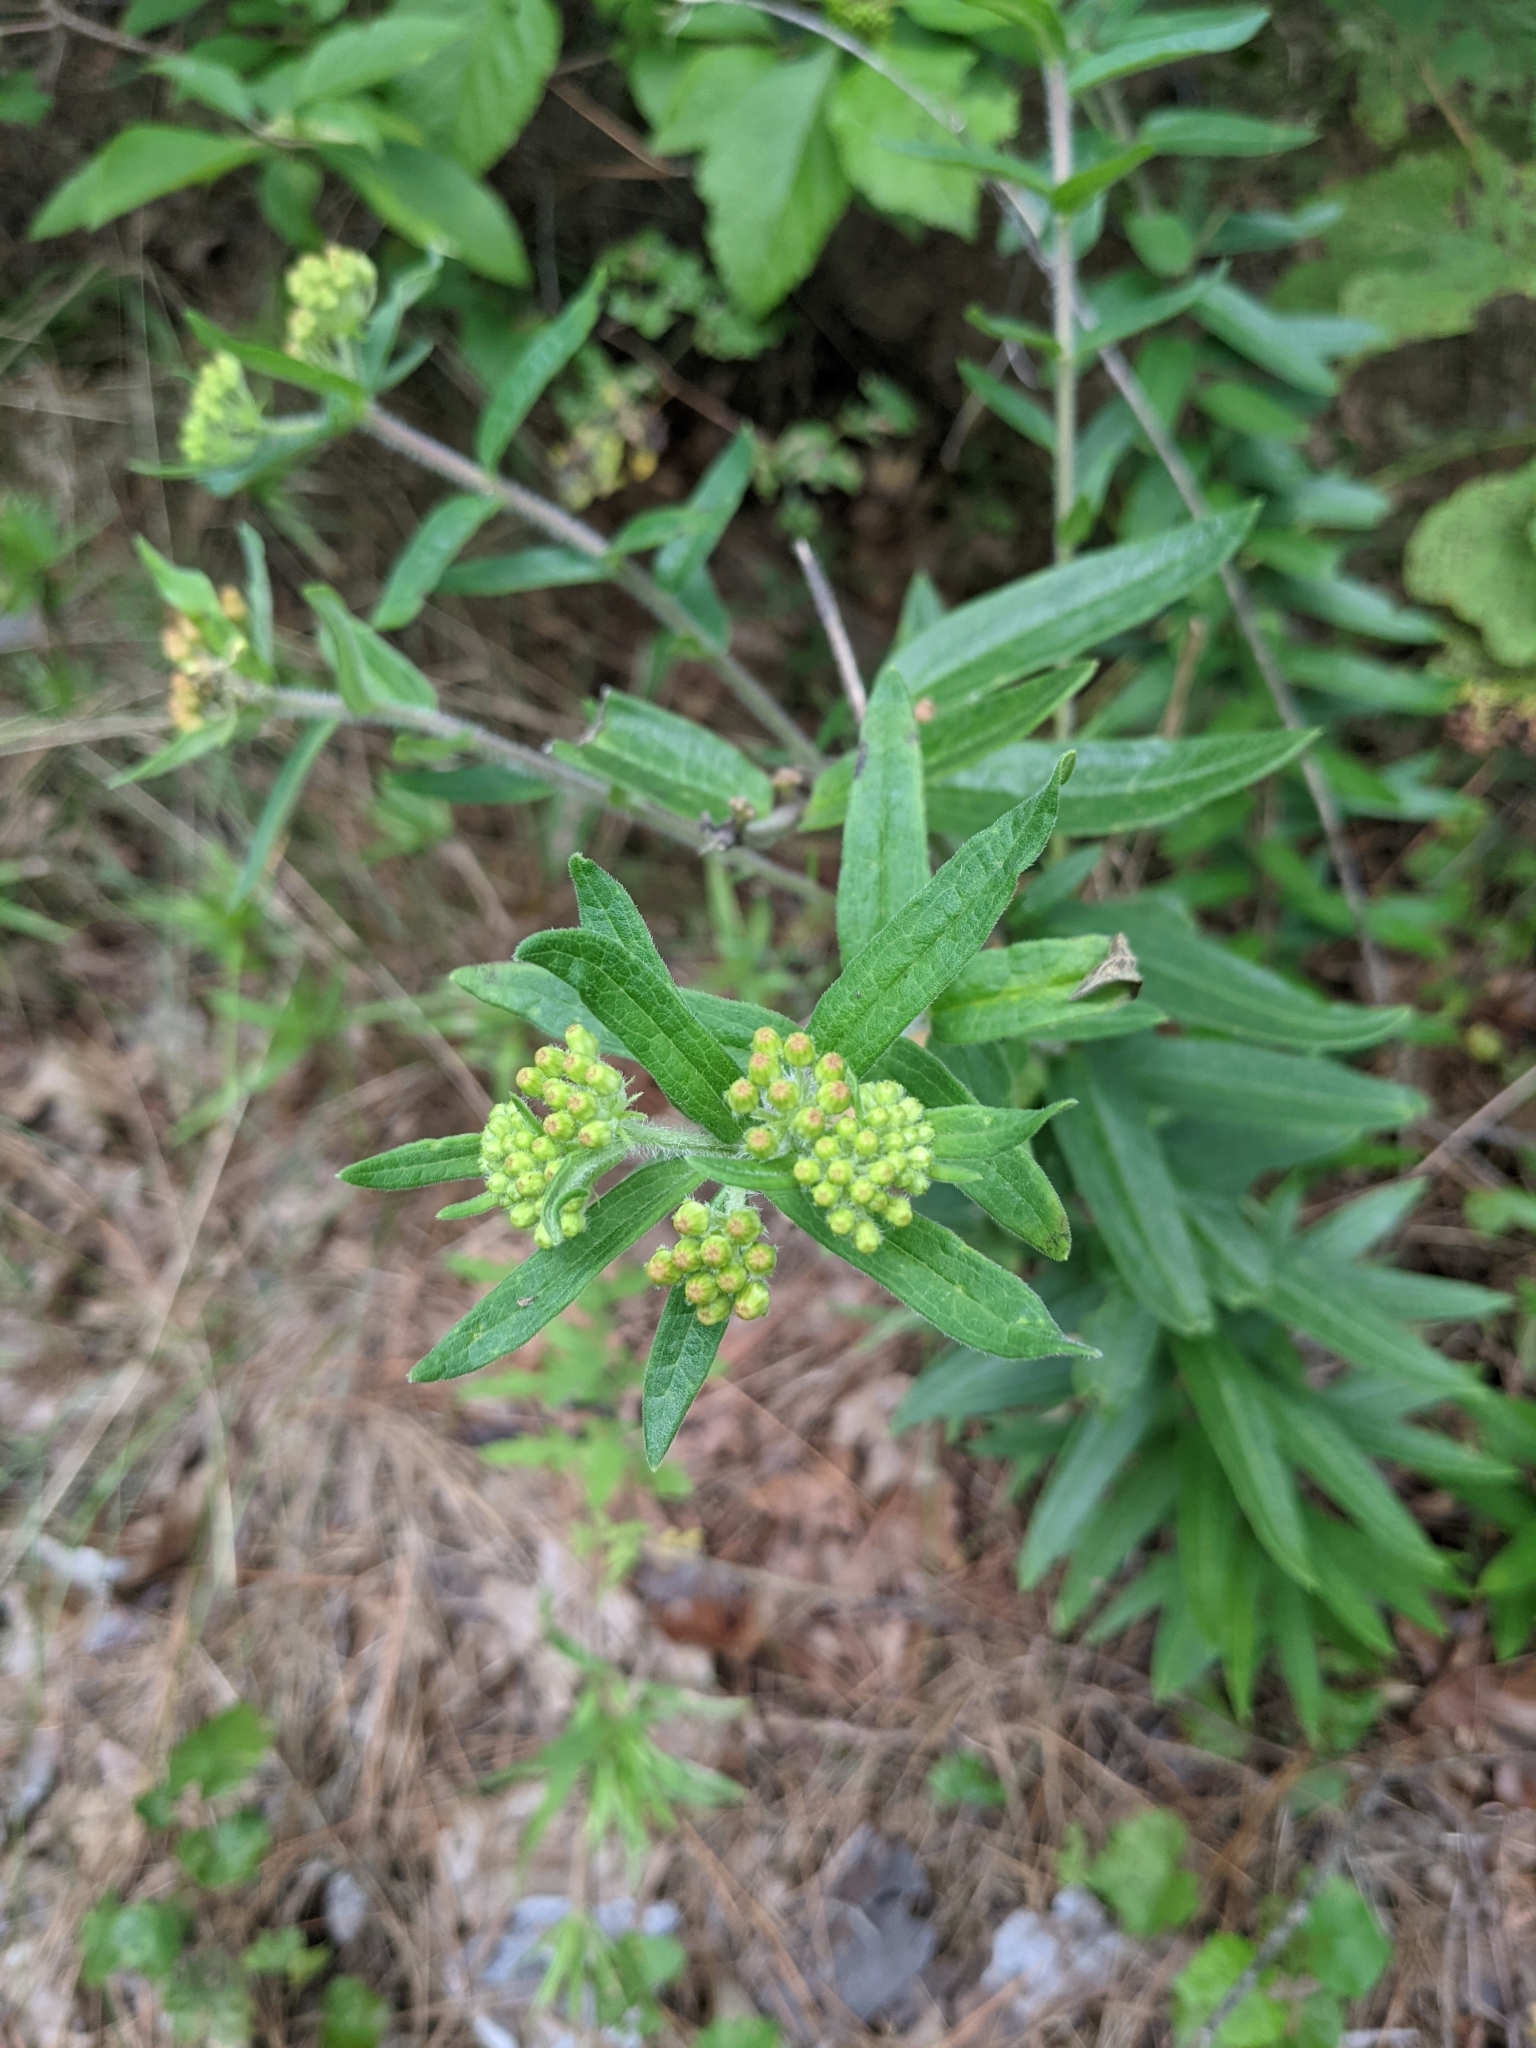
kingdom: Plantae
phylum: Tracheophyta
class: Magnoliopsida
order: Gentianales
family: Apocynaceae
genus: Asclepias
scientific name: Asclepias tuberosa
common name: Butterfly milkweed
